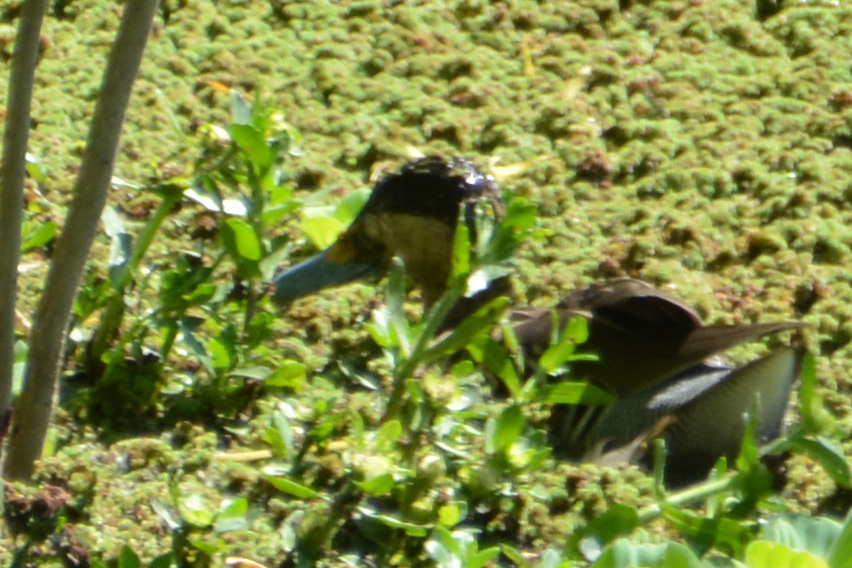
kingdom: Animalia
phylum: Chordata
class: Aves
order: Anseriformes
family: Anatidae
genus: Spatula
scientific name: Spatula versicolor
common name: Silver teal
